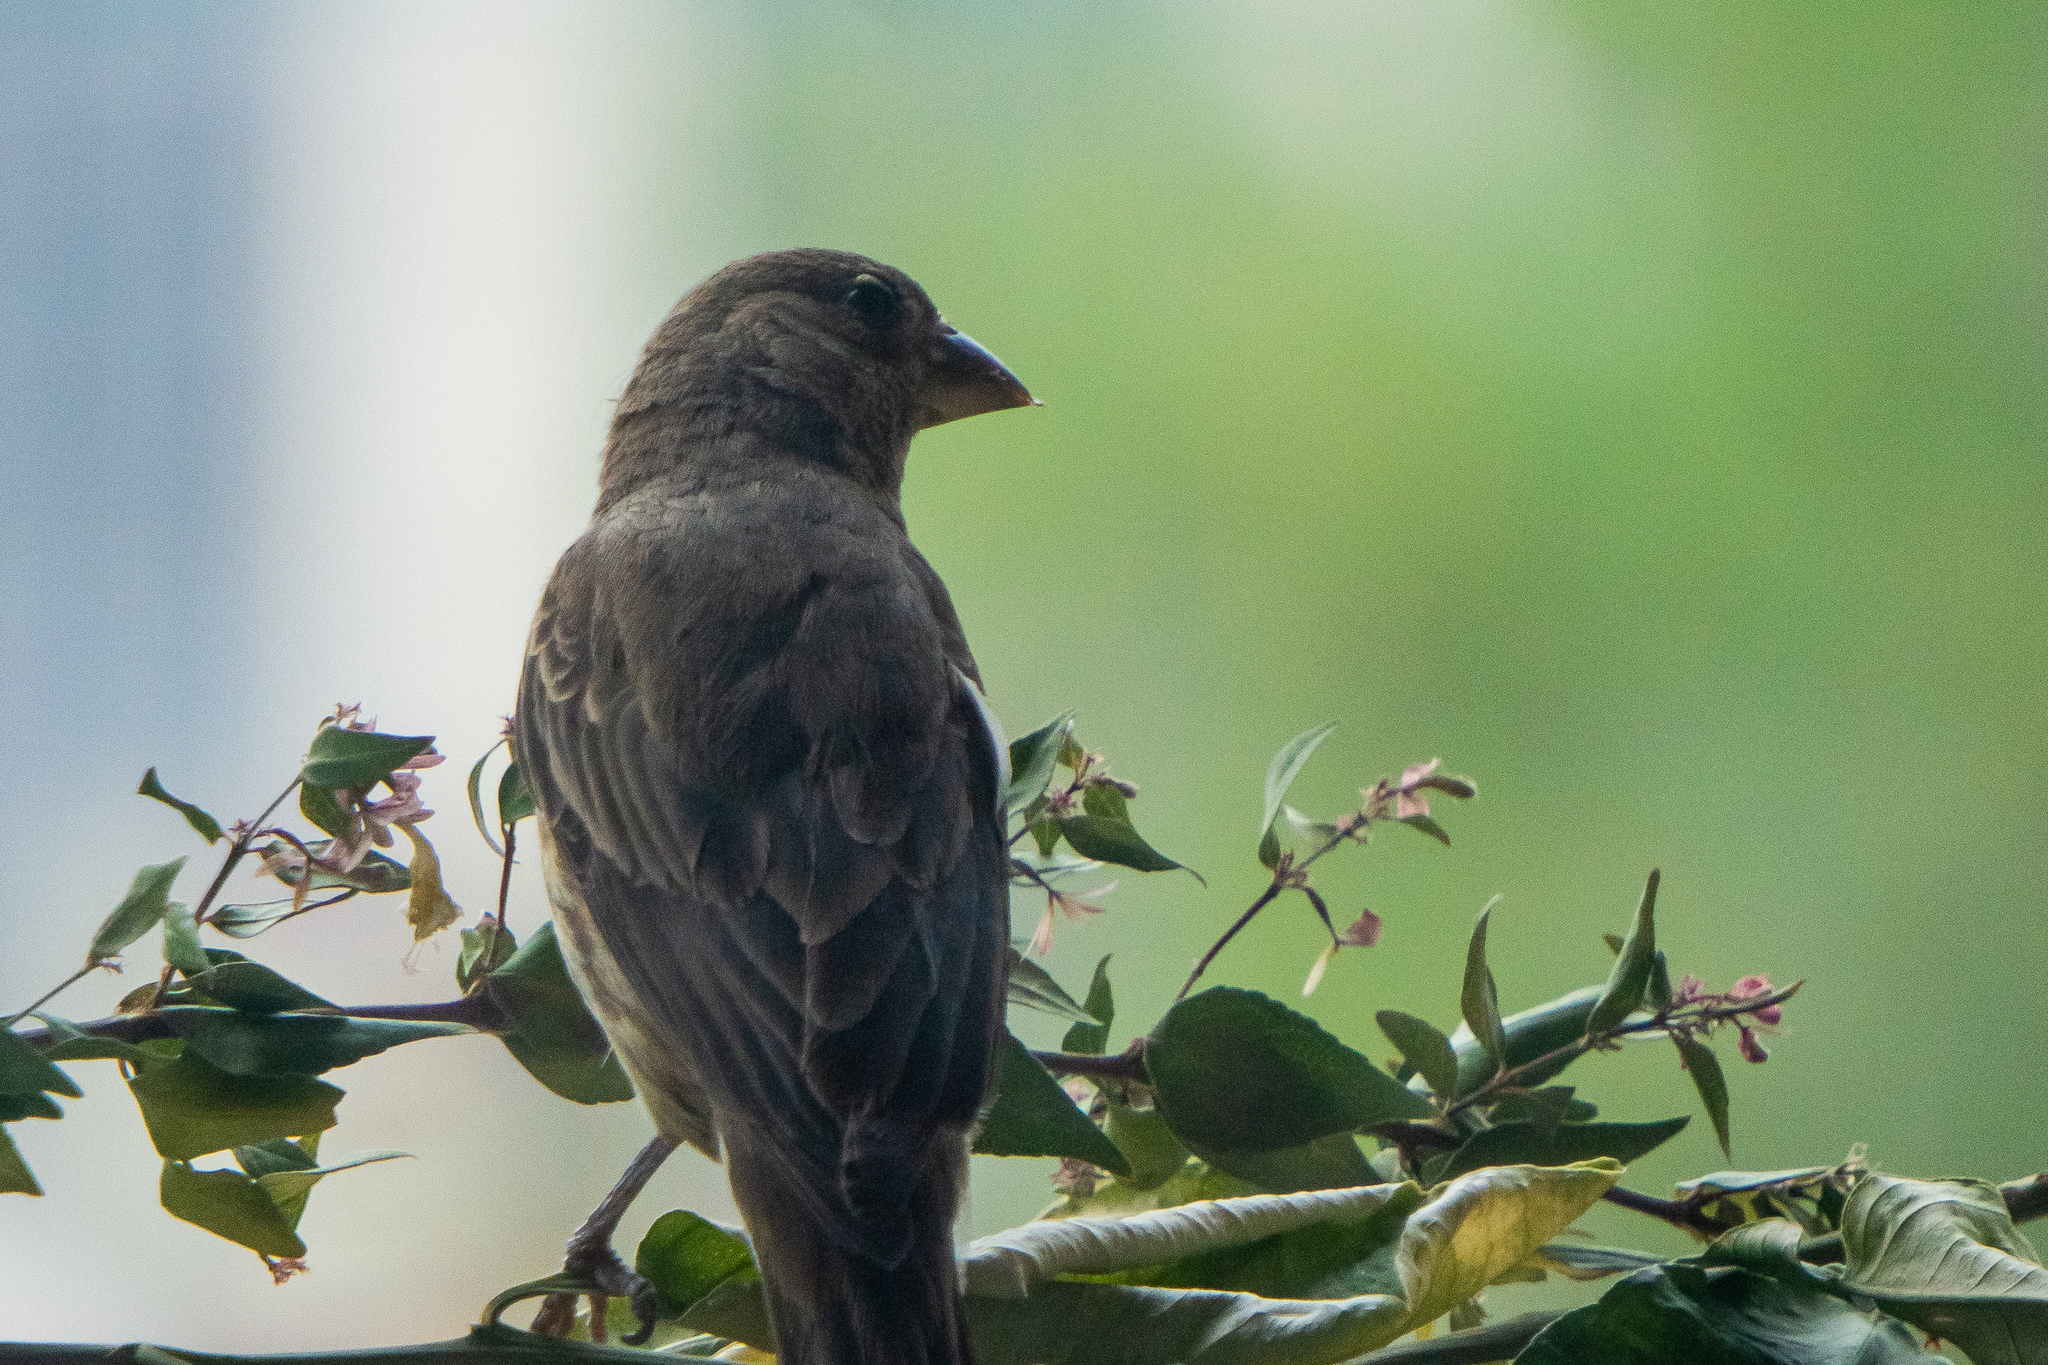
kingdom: Animalia
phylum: Chordata
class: Aves
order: Passeriformes
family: Fringillidae
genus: Haemorhous
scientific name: Haemorhous mexicanus
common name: House finch
